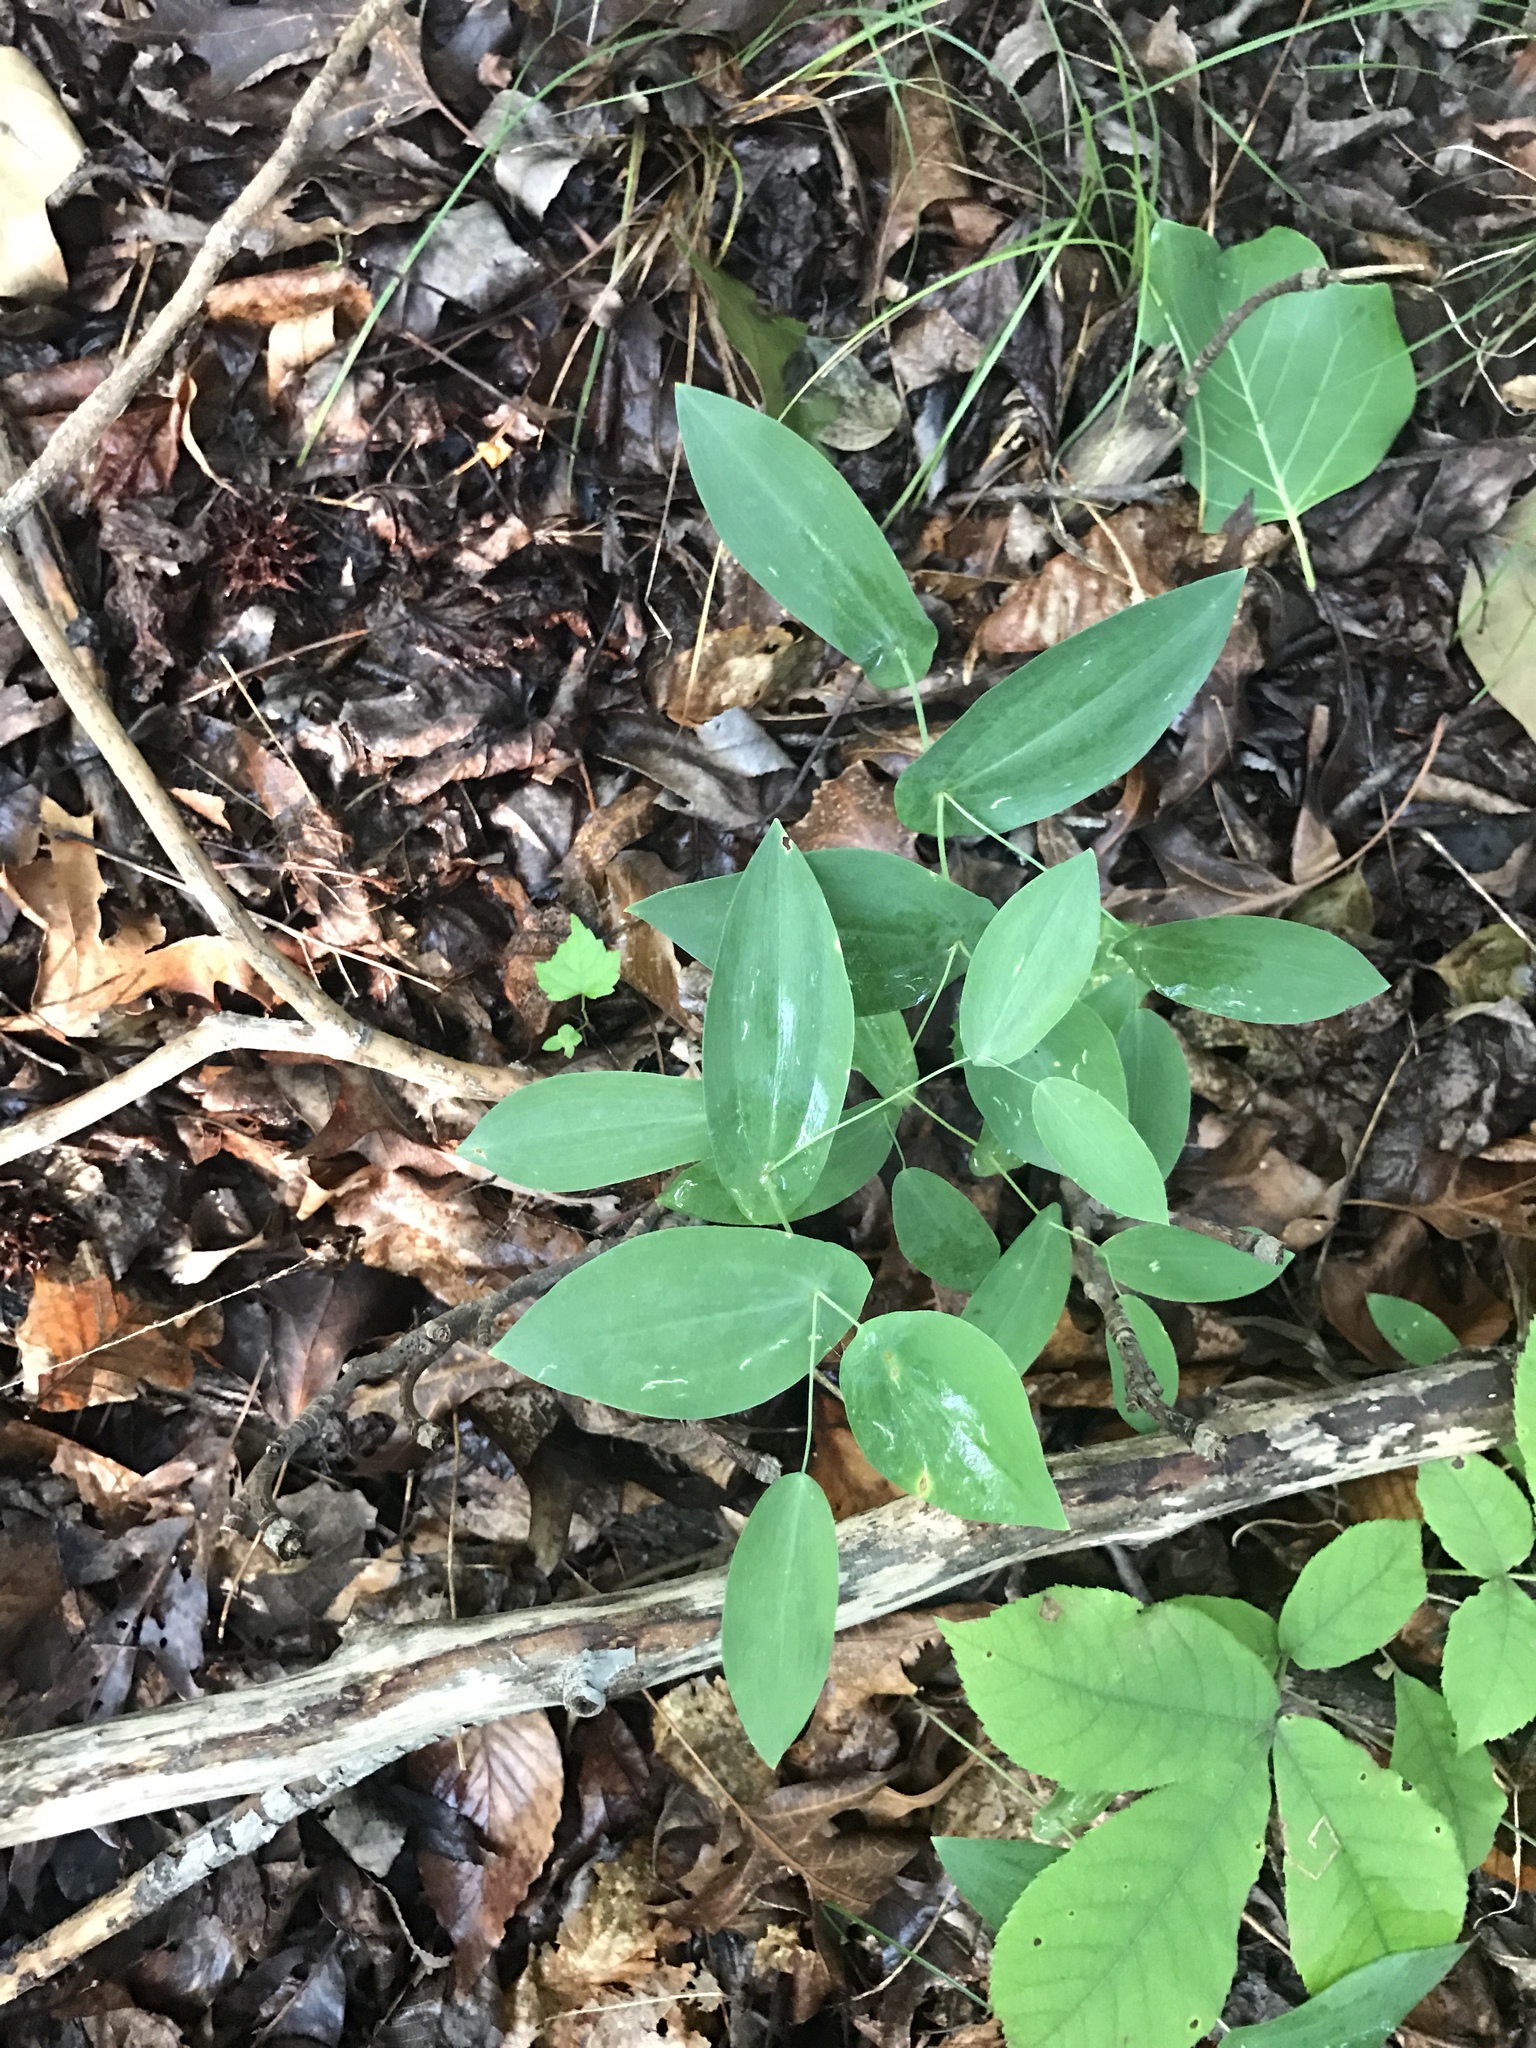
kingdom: Plantae
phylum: Tracheophyta
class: Liliopsida
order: Liliales
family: Colchicaceae
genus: Uvularia
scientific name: Uvularia perfoliata
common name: Perfoliate bellwort
